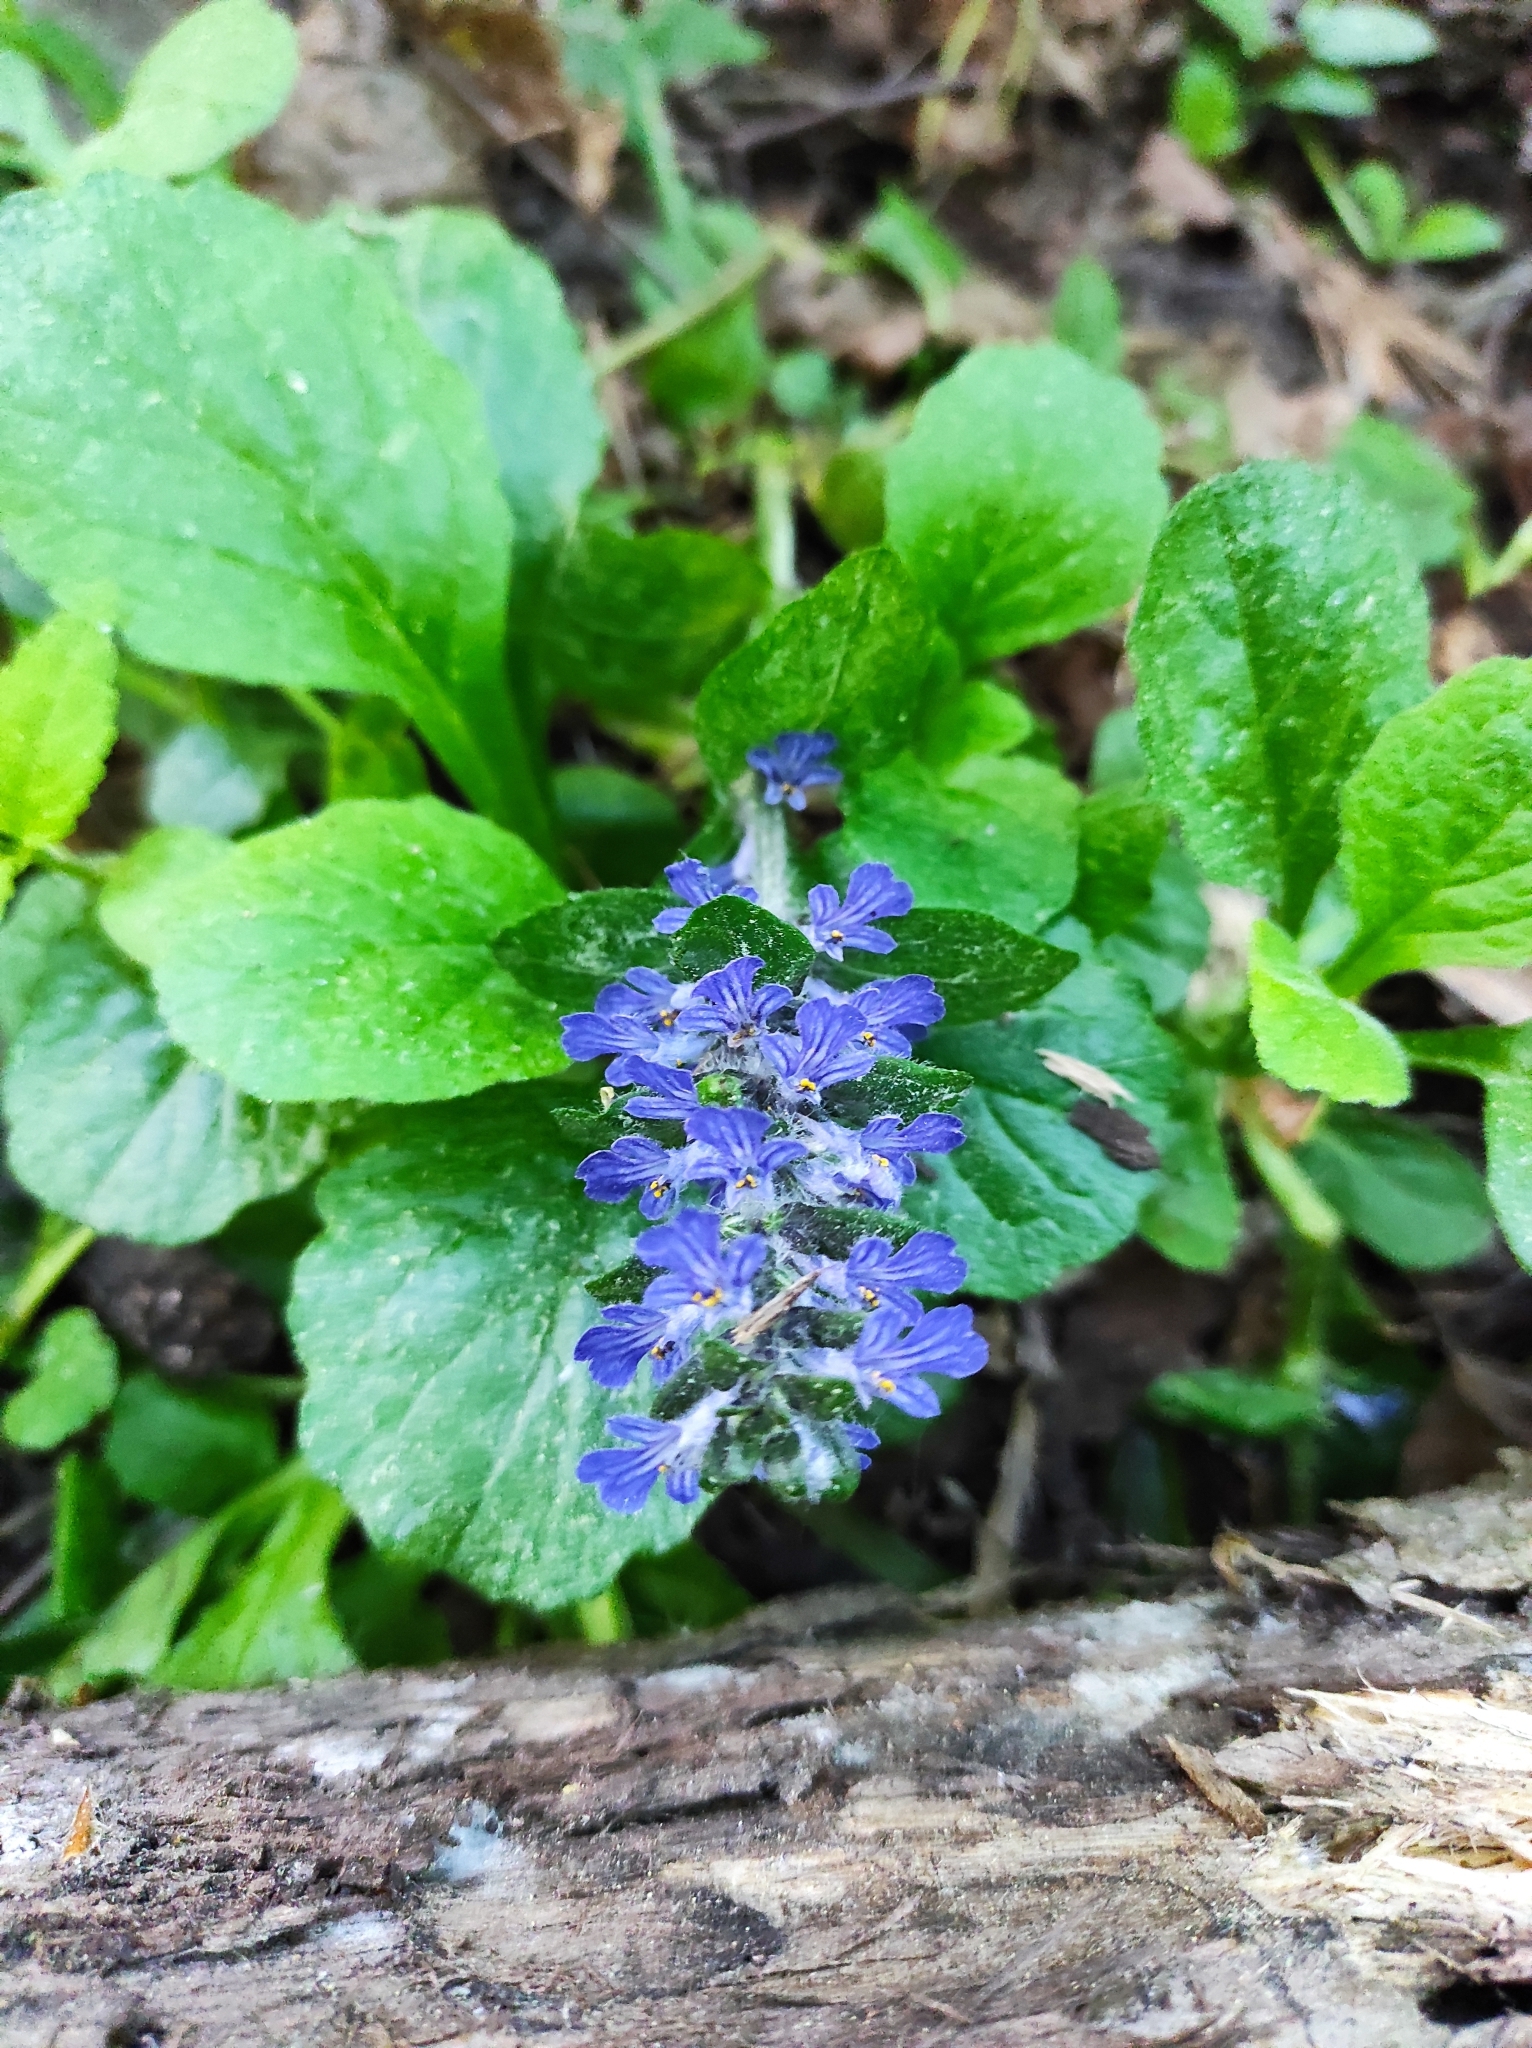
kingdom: Plantae
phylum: Tracheophyta
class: Magnoliopsida
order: Lamiales
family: Lamiaceae
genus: Ajuga
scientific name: Ajuga reptans
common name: Bugle
